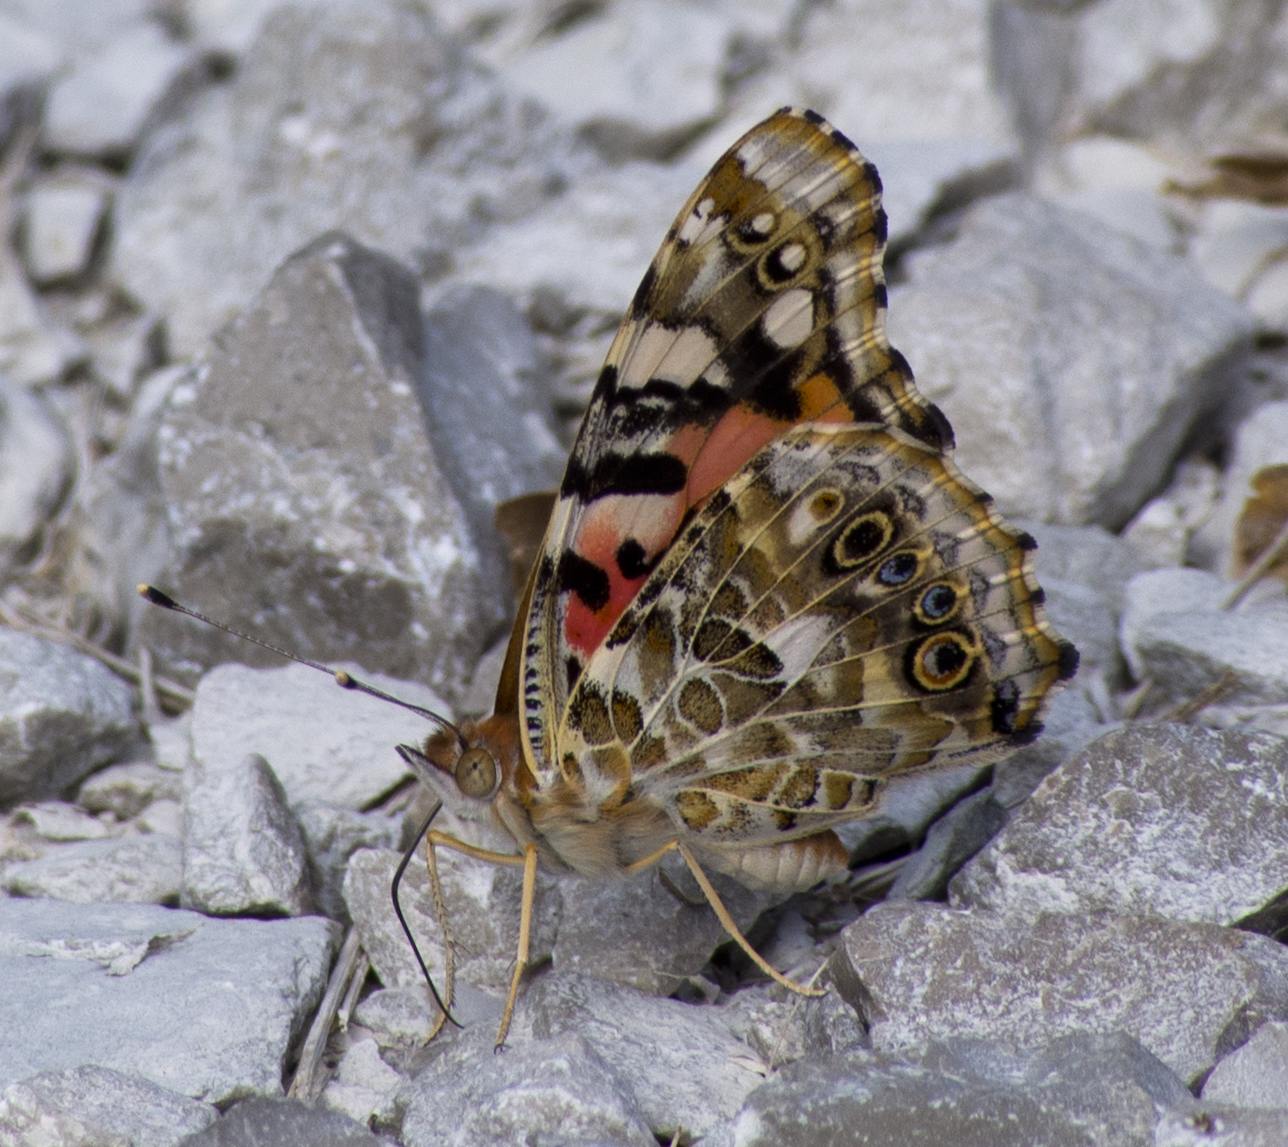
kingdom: Animalia
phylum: Arthropoda
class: Insecta
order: Lepidoptera
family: Nymphalidae
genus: Vanessa
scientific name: Vanessa cardui
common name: Painted lady
